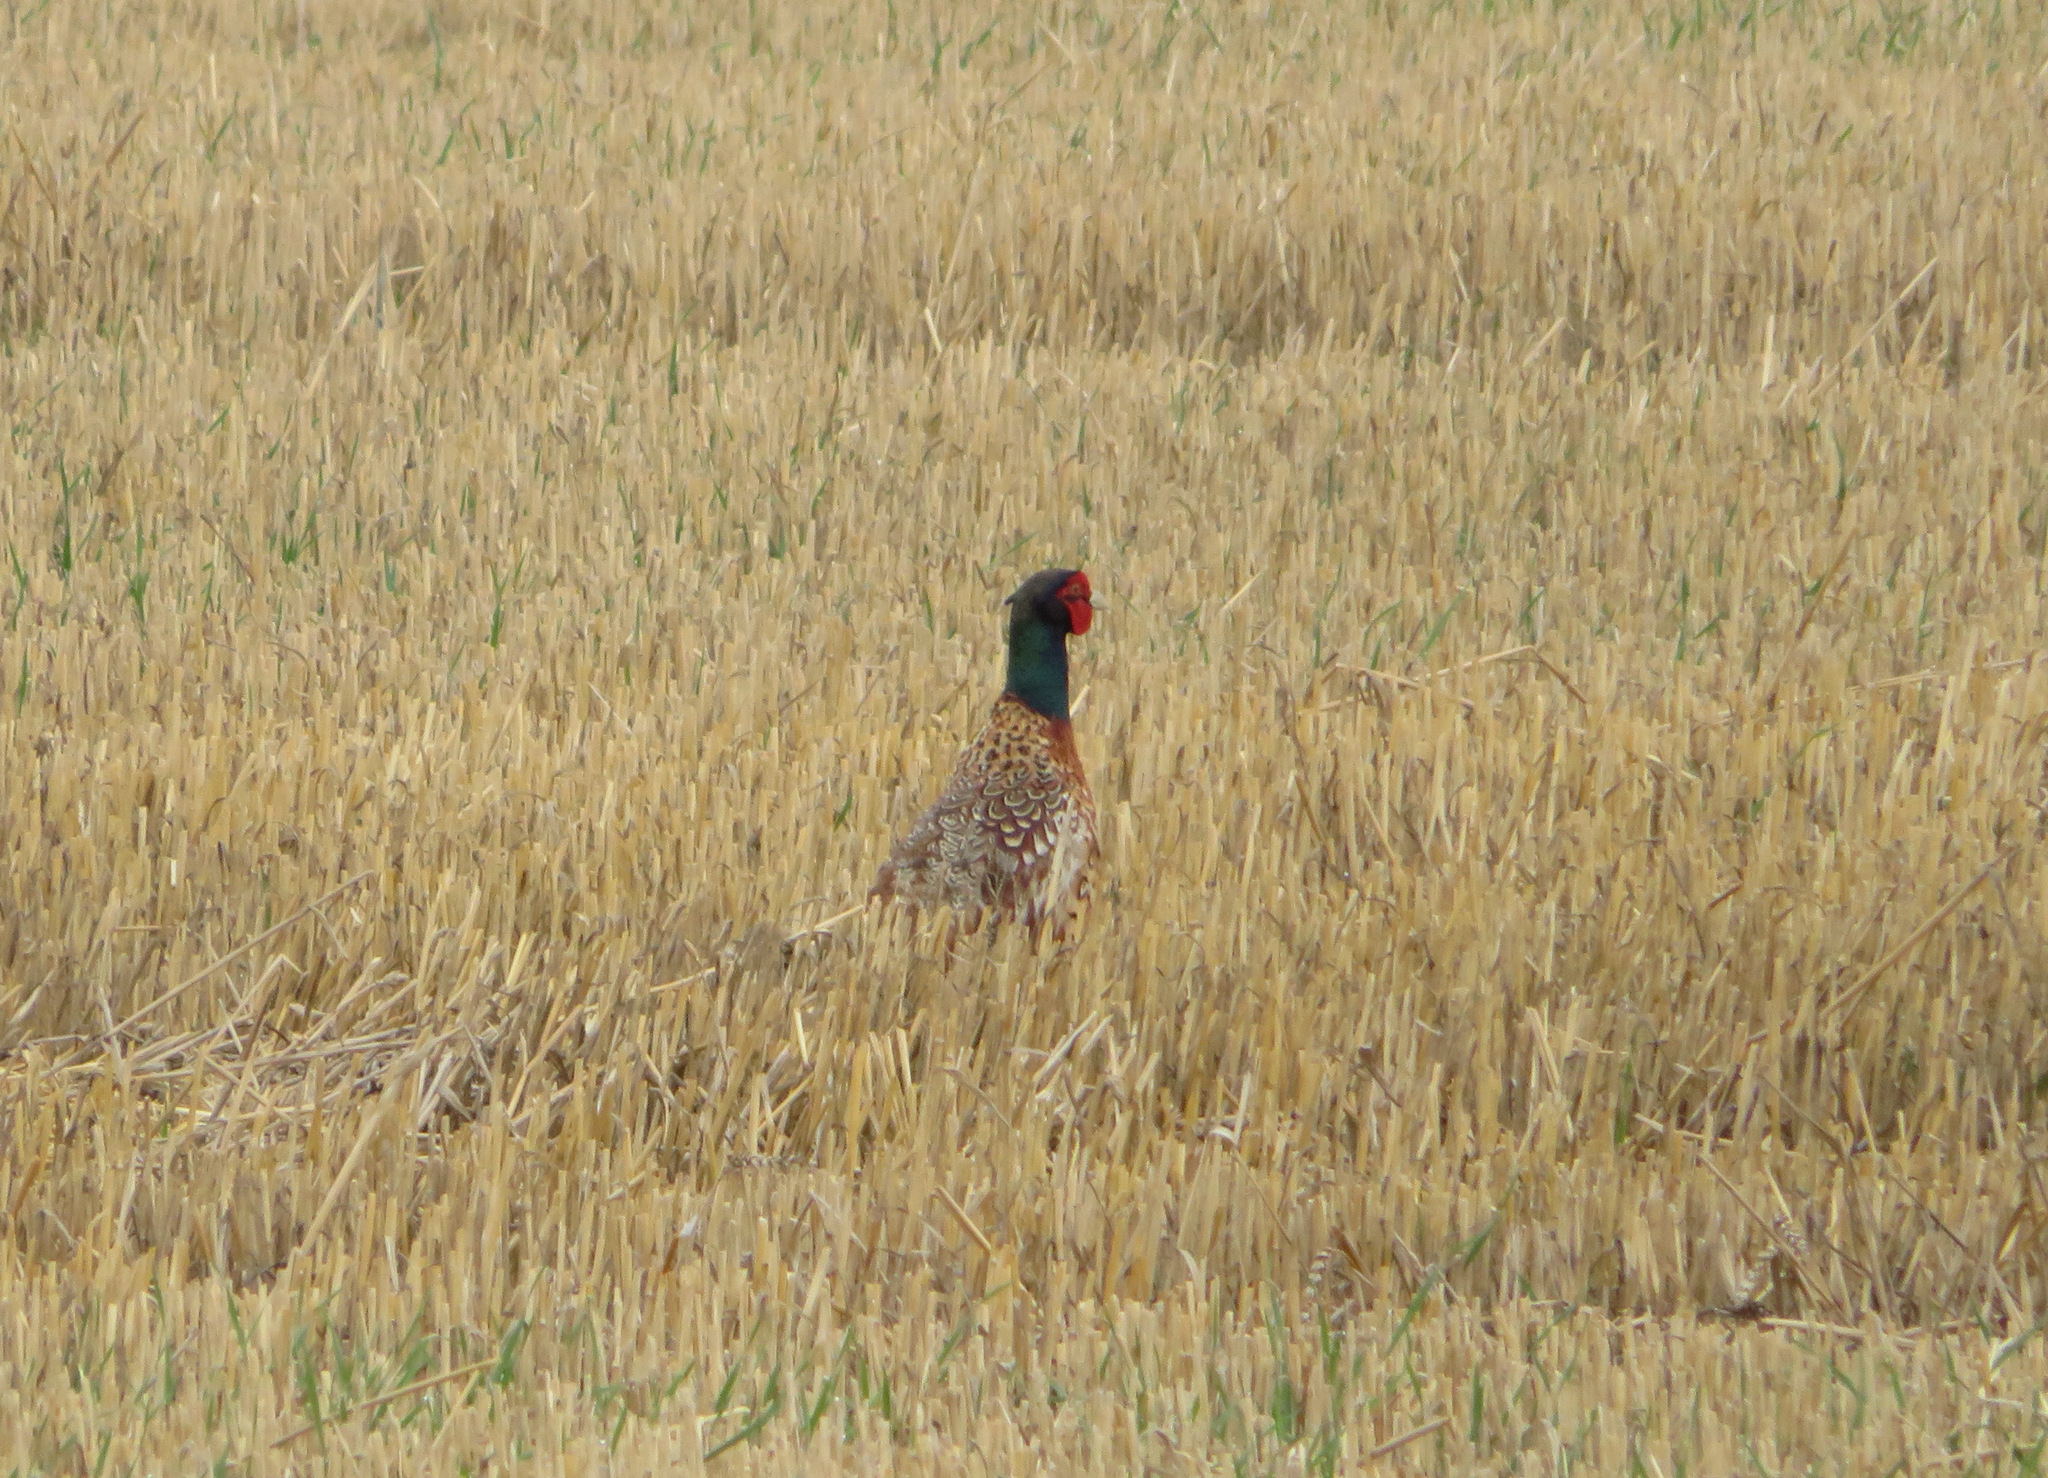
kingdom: Animalia
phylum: Chordata
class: Aves
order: Galliformes
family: Phasianidae
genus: Phasianus
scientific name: Phasianus colchicus
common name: Common pheasant
